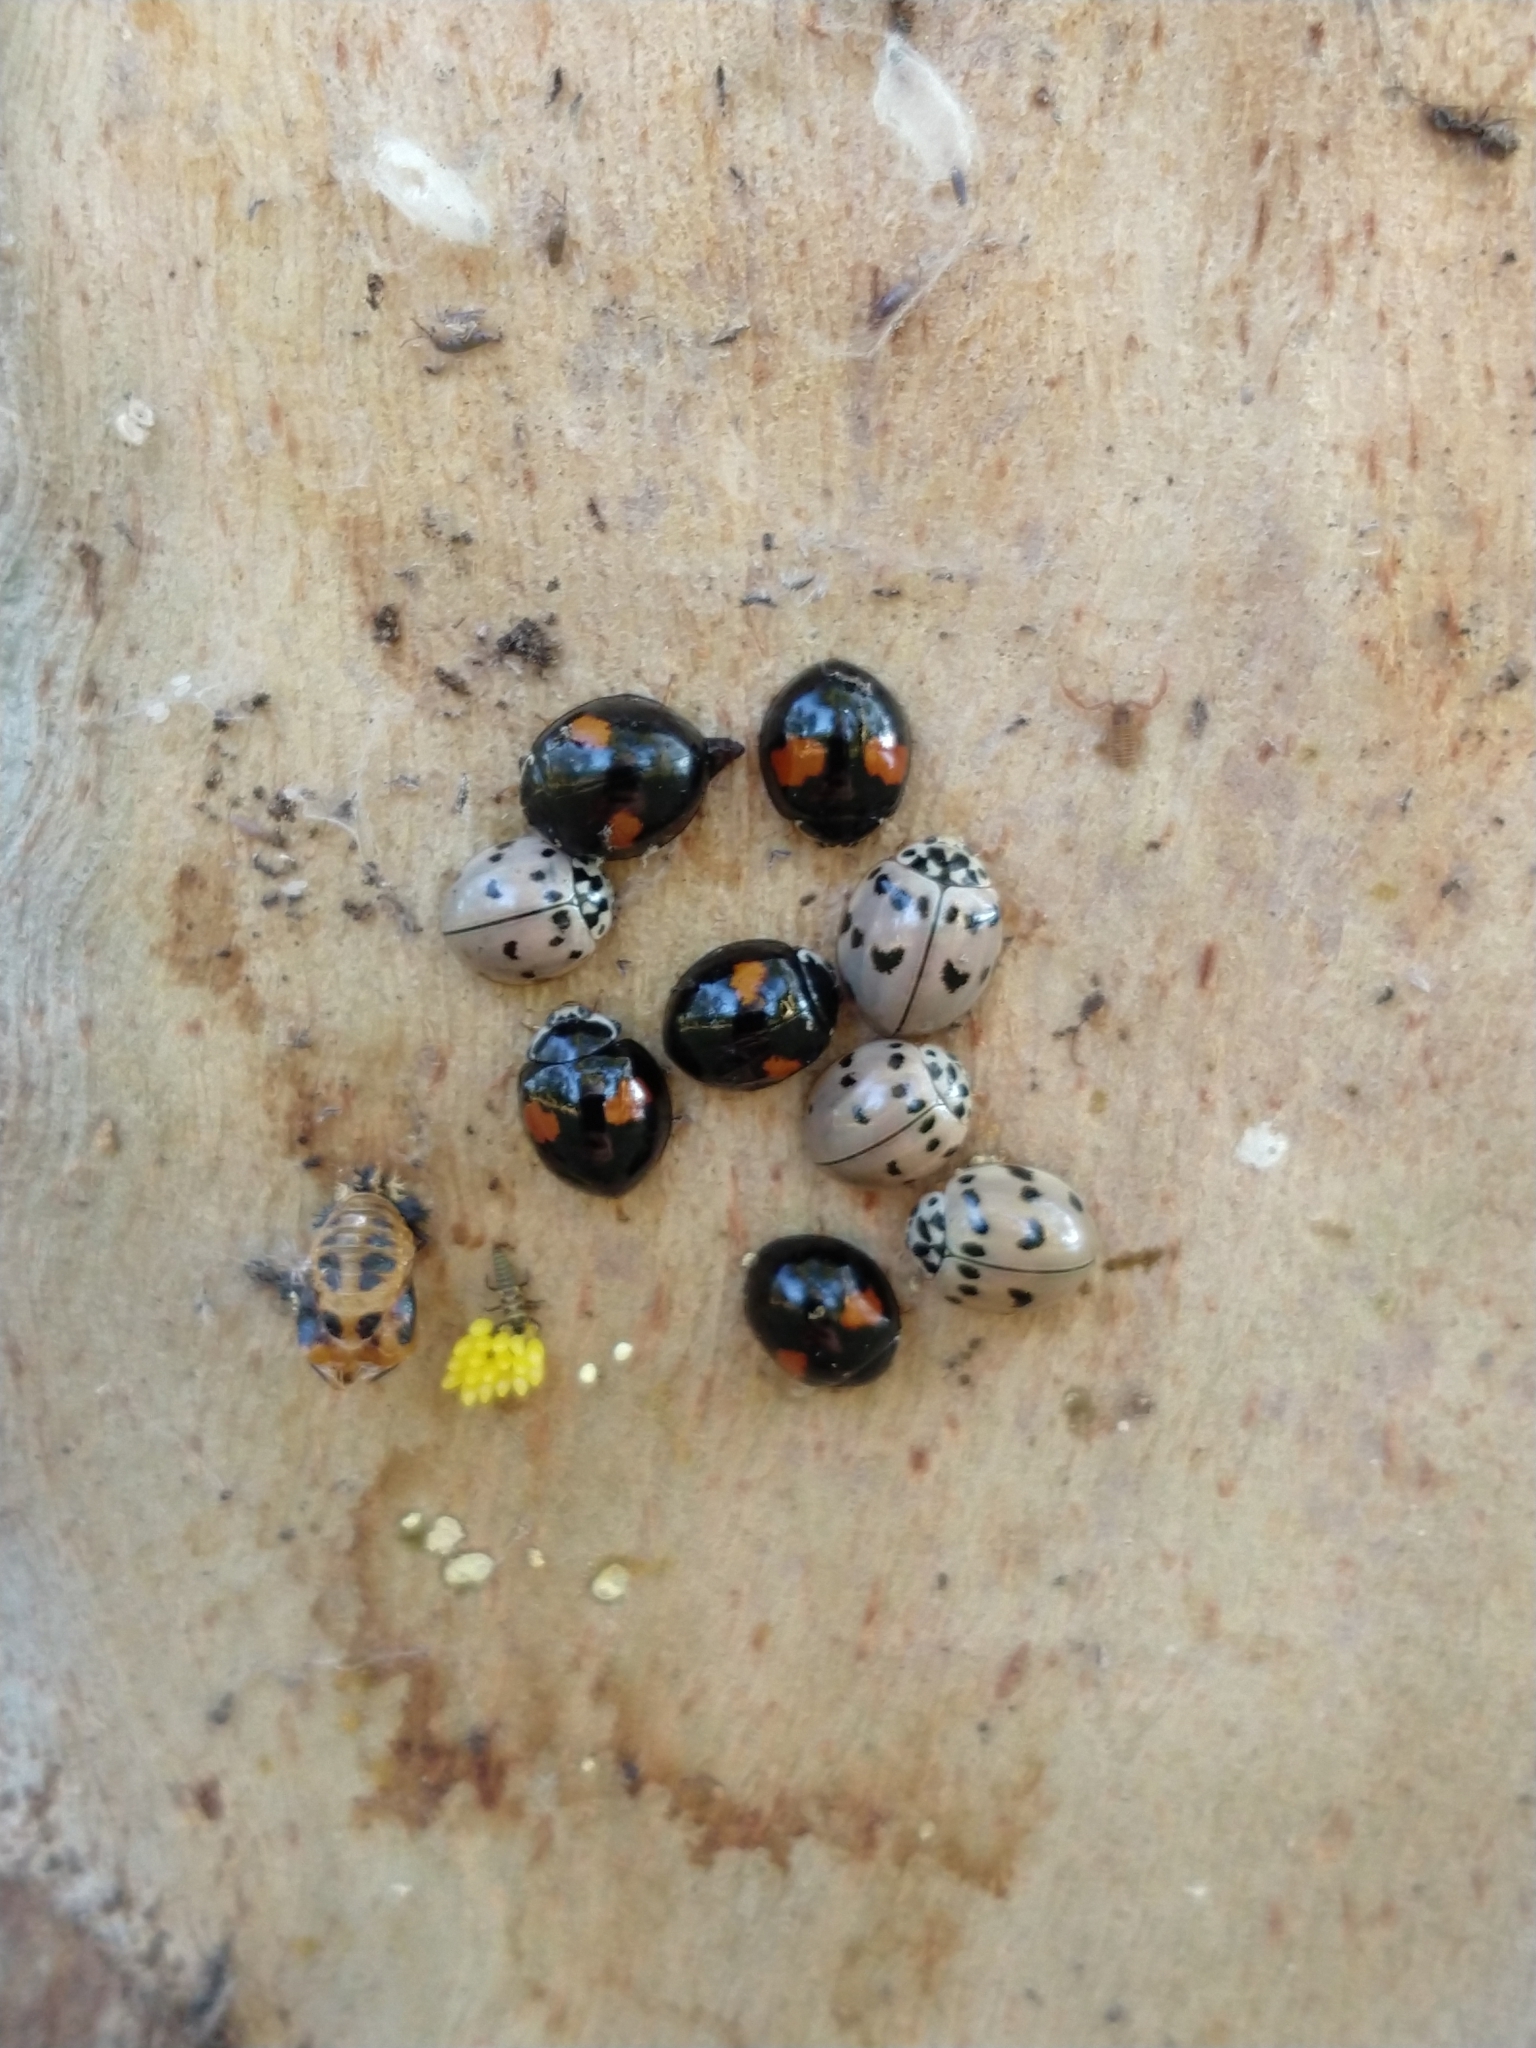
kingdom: Animalia
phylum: Arthropoda
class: Insecta
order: Coleoptera
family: Coccinellidae
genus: Olla
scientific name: Olla v-nigrum
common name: Ashy gray lady beetle
